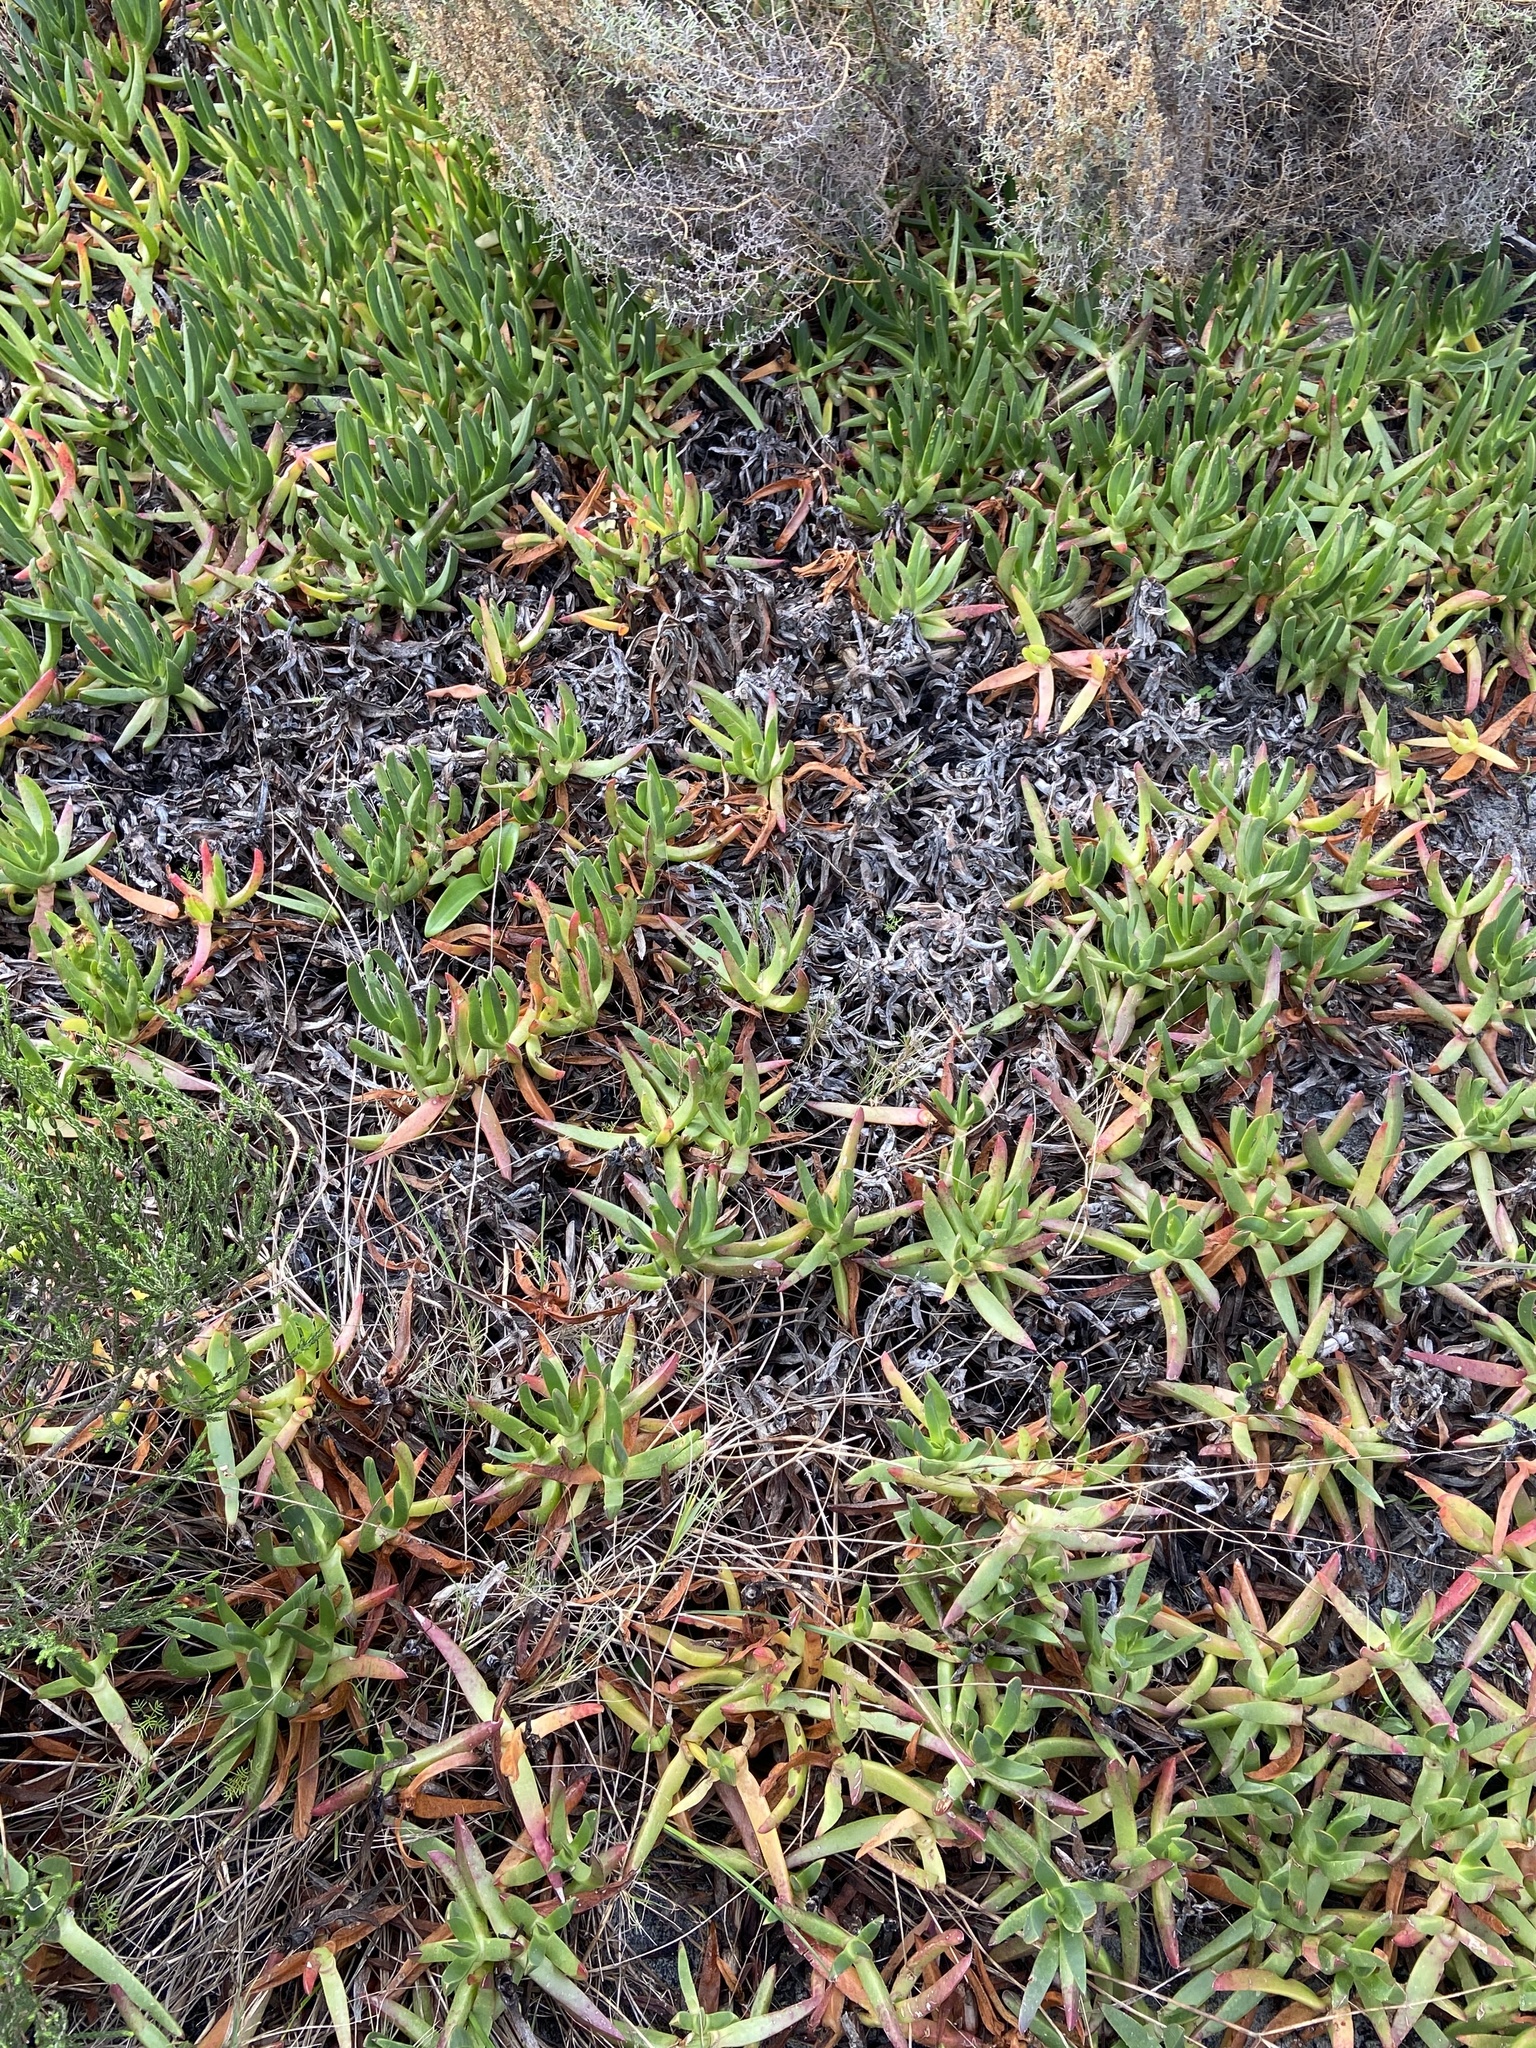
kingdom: Plantae
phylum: Tracheophyta
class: Magnoliopsida
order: Caryophyllales
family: Aizoaceae
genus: Carpobrotus
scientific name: Carpobrotus edulis
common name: Hottentot-fig
